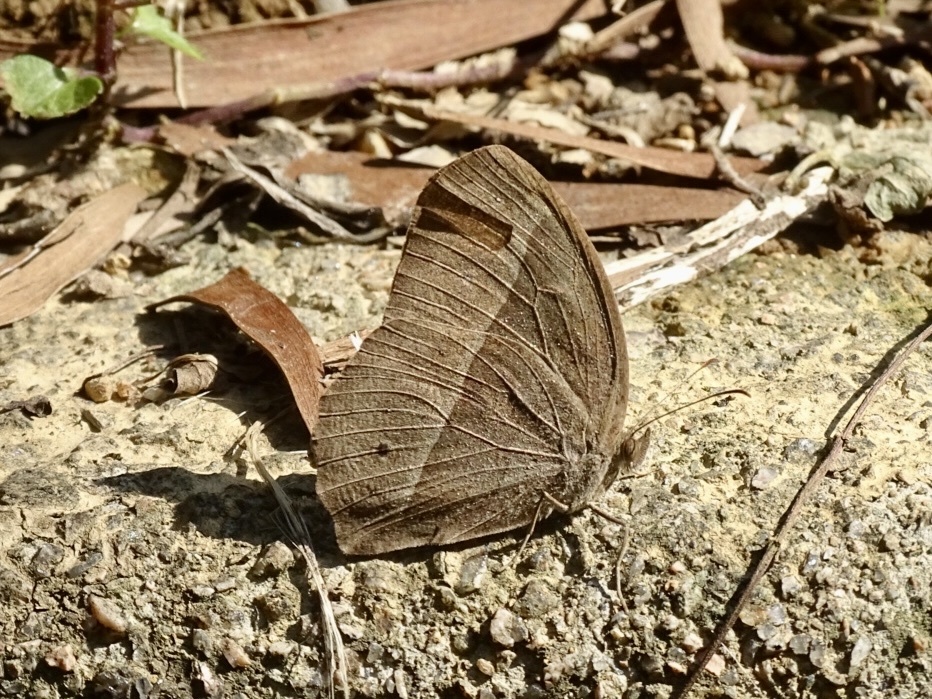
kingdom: Animalia
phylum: Arthropoda
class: Insecta
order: Lepidoptera
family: Nymphalidae
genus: Mycalesis
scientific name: Mycalesis horsfieldii
